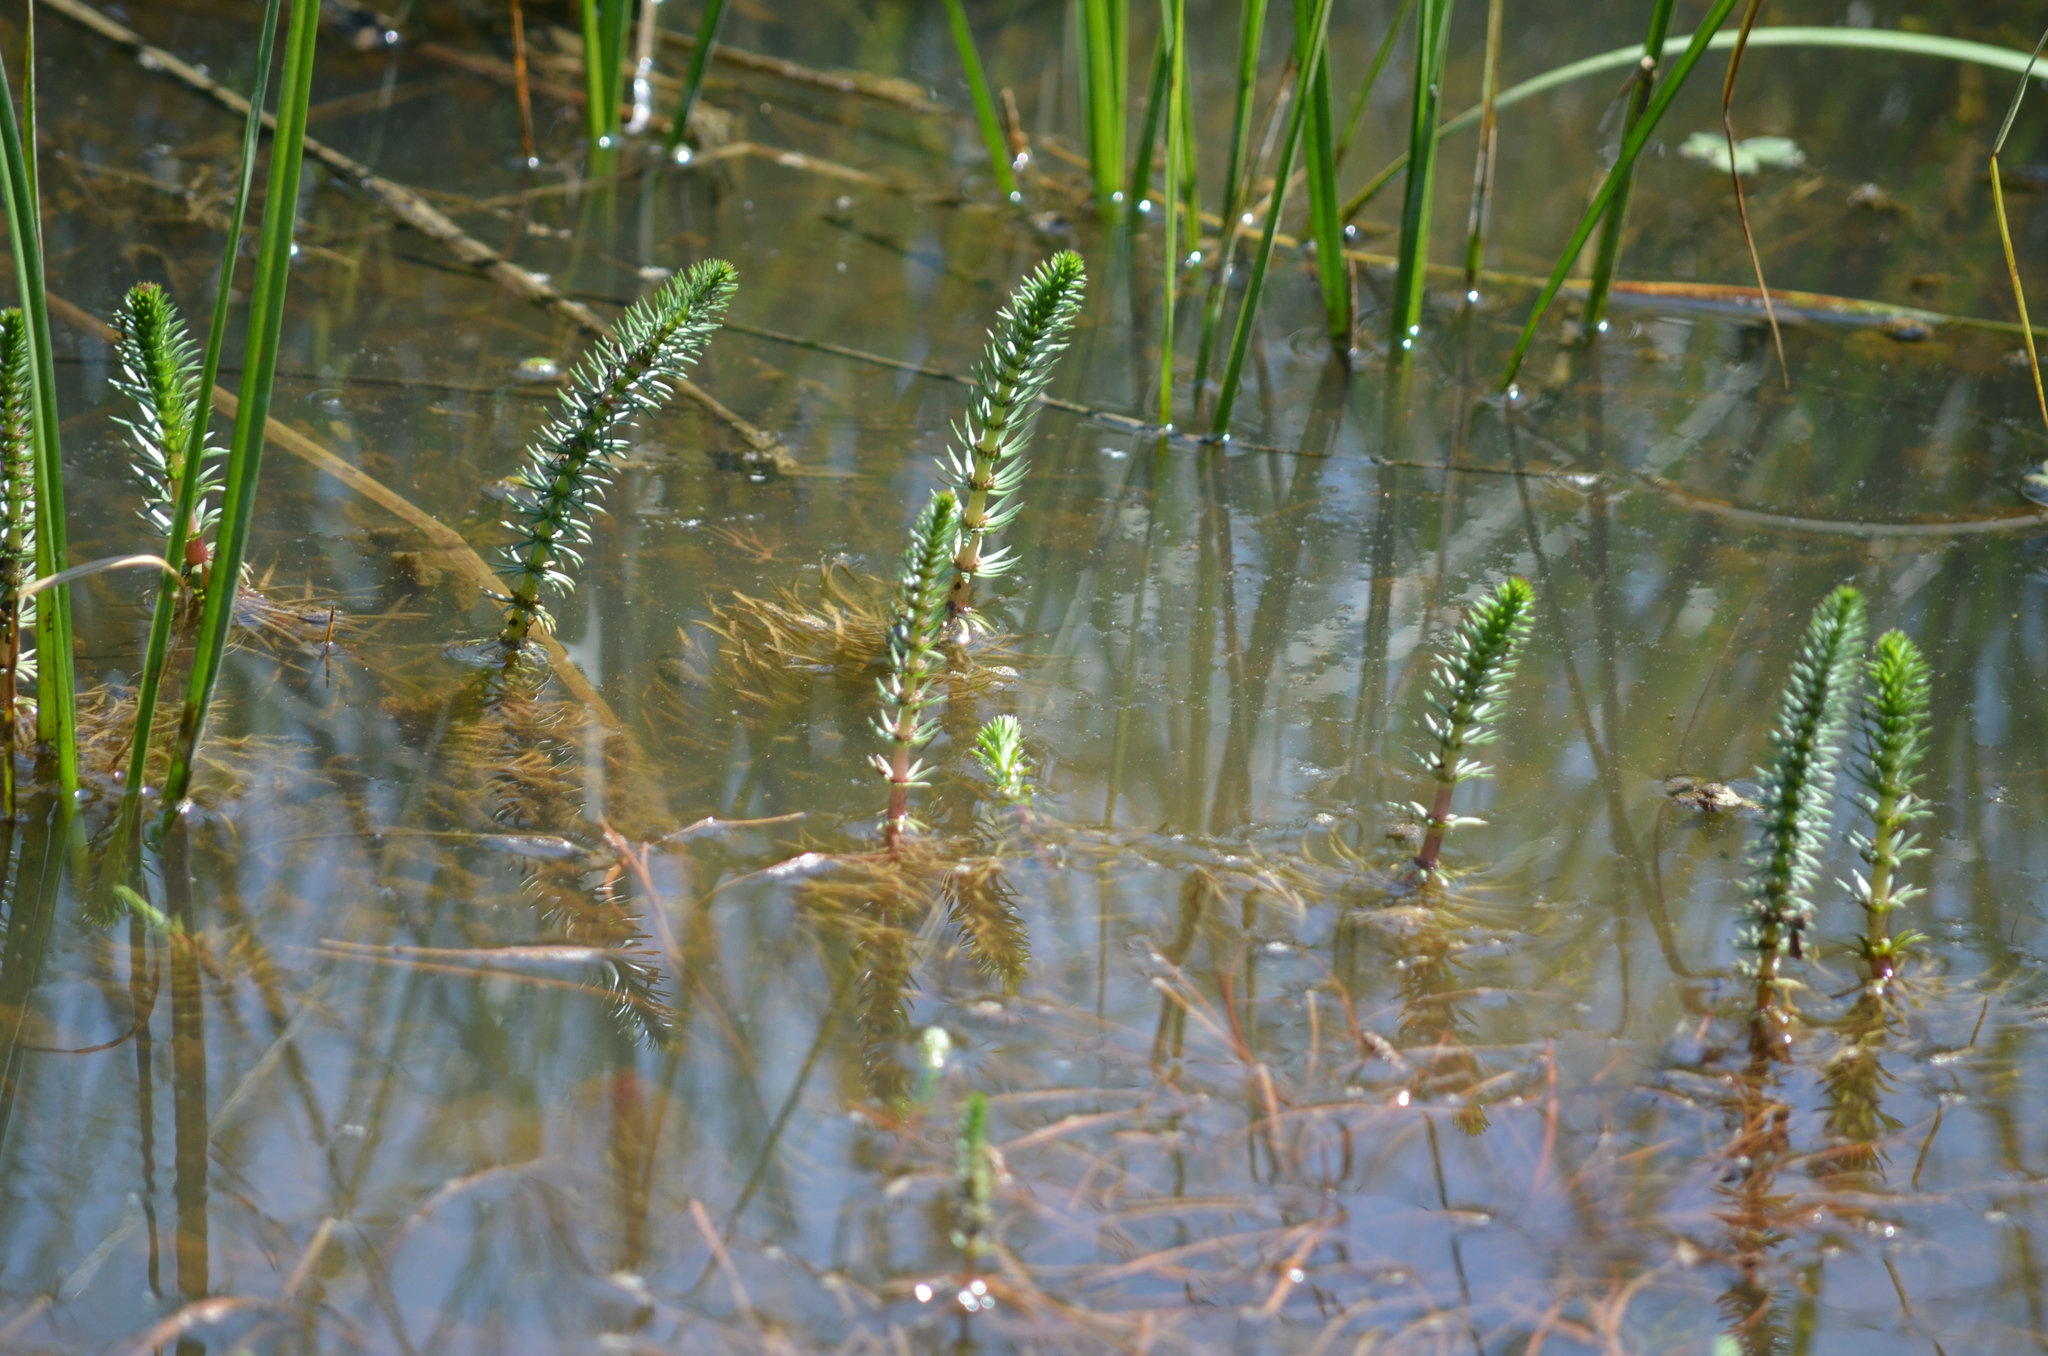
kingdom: Plantae
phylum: Tracheophyta
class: Magnoliopsida
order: Lamiales
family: Plantaginaceae
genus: Hippuris
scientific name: Hippuris vulgaris
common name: Mare's-tail
